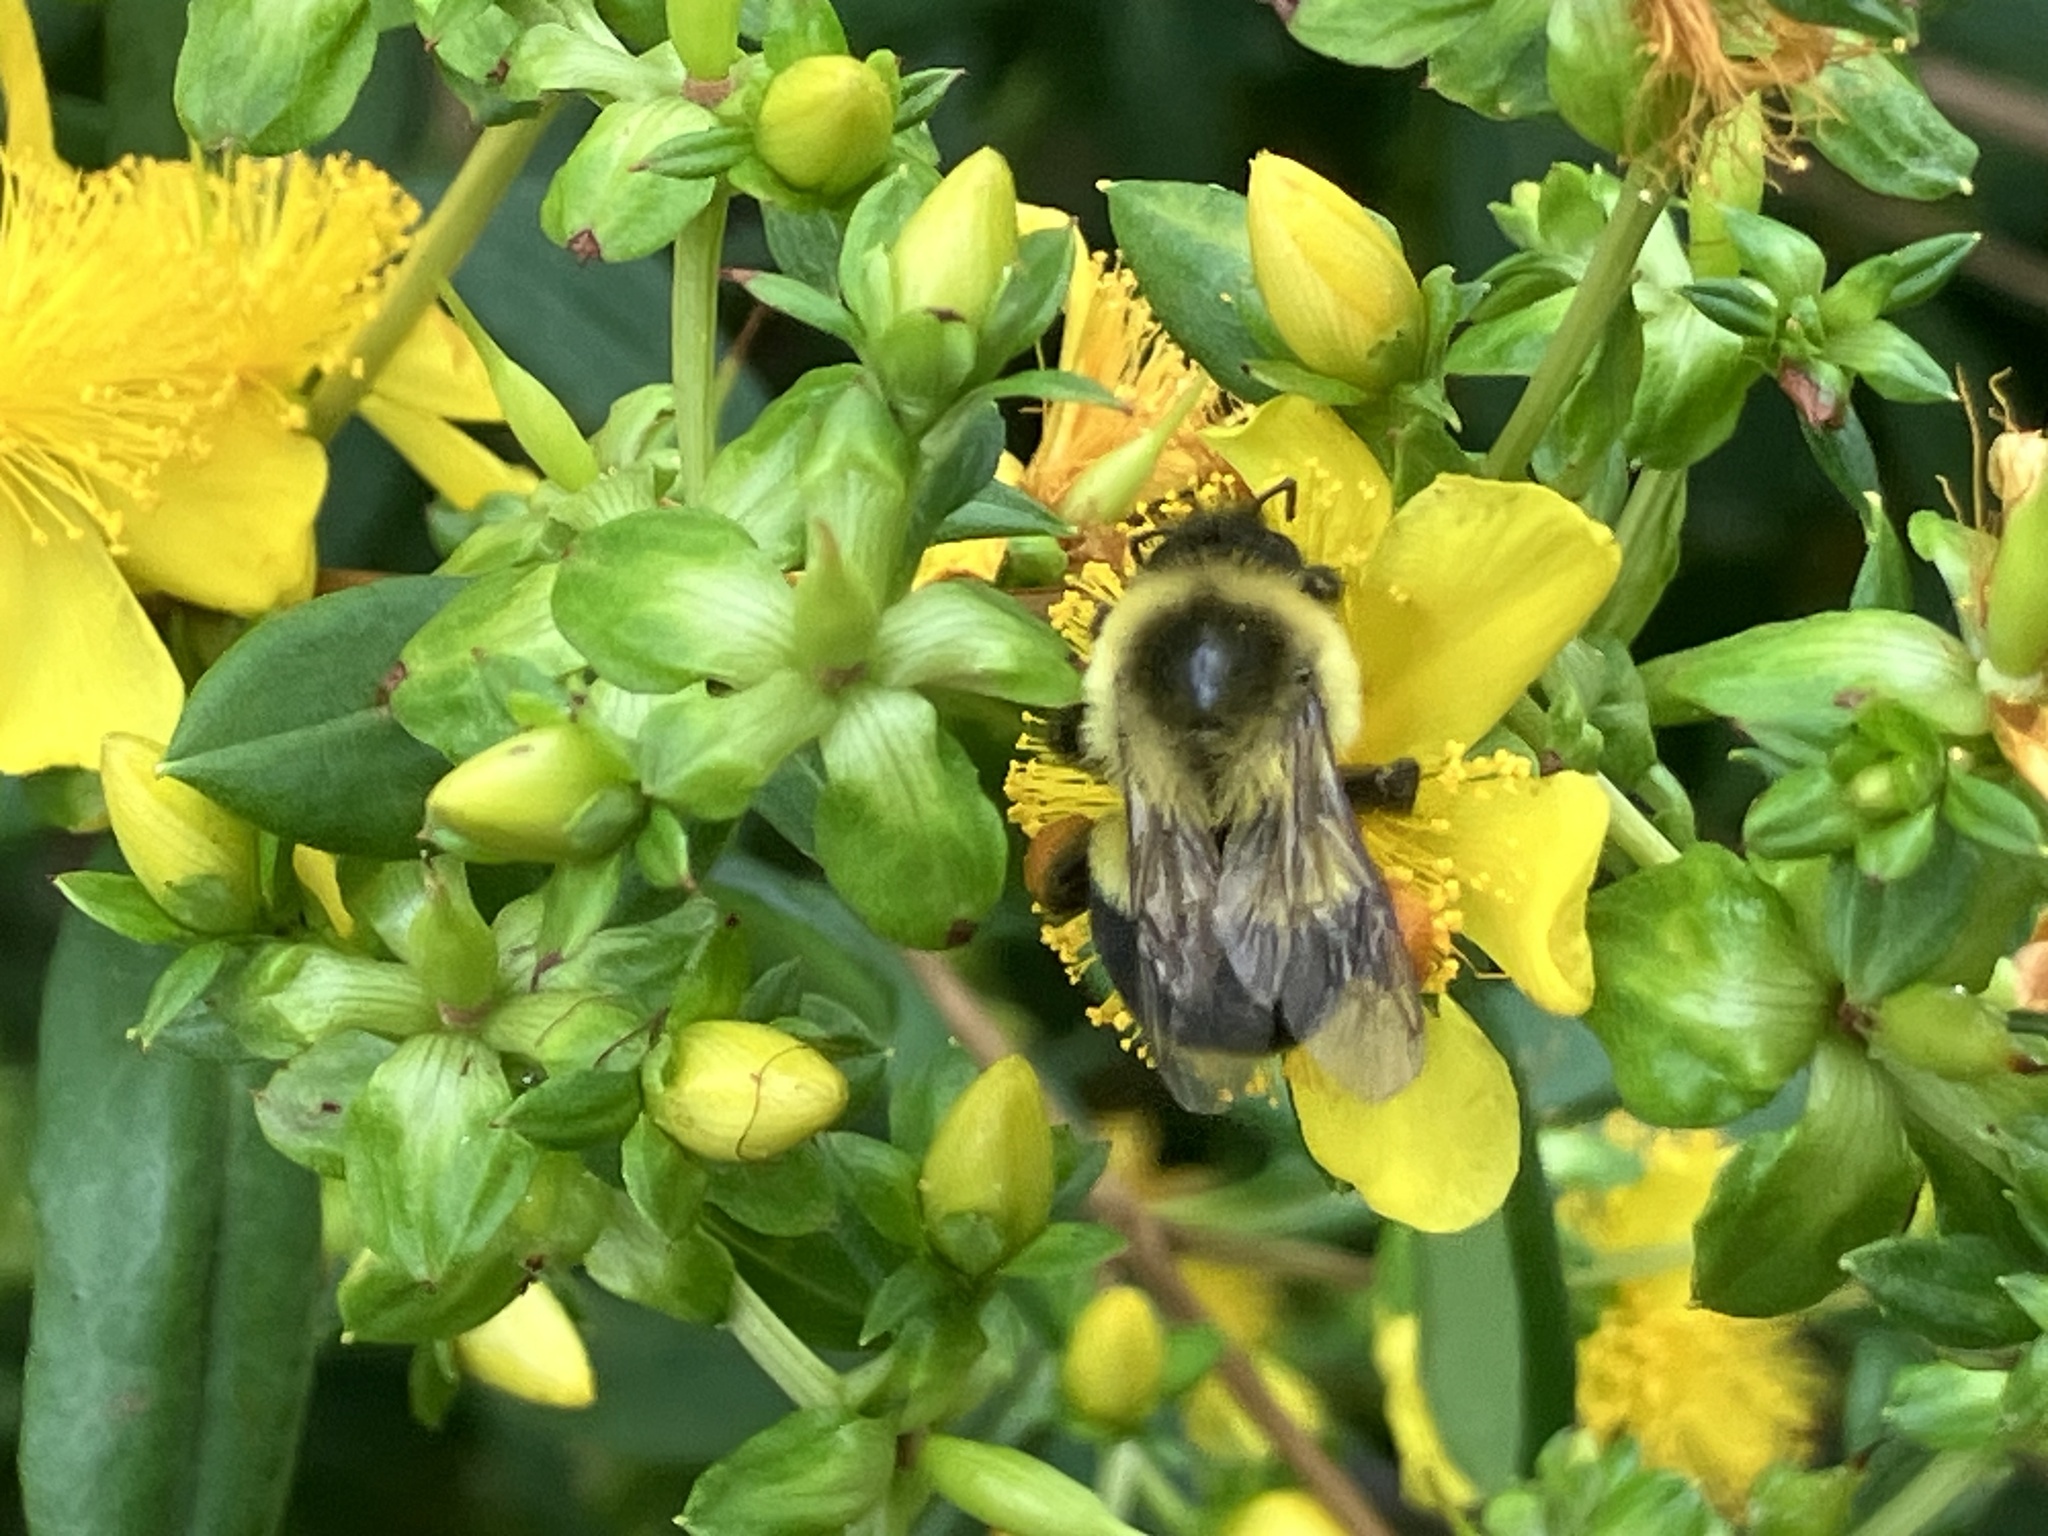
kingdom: Animalia
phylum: Arthropoda
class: Insecta
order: Hymenoptera
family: Apidae
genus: Bombus
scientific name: Bombus impatiens
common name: Common eastern bumble bee
